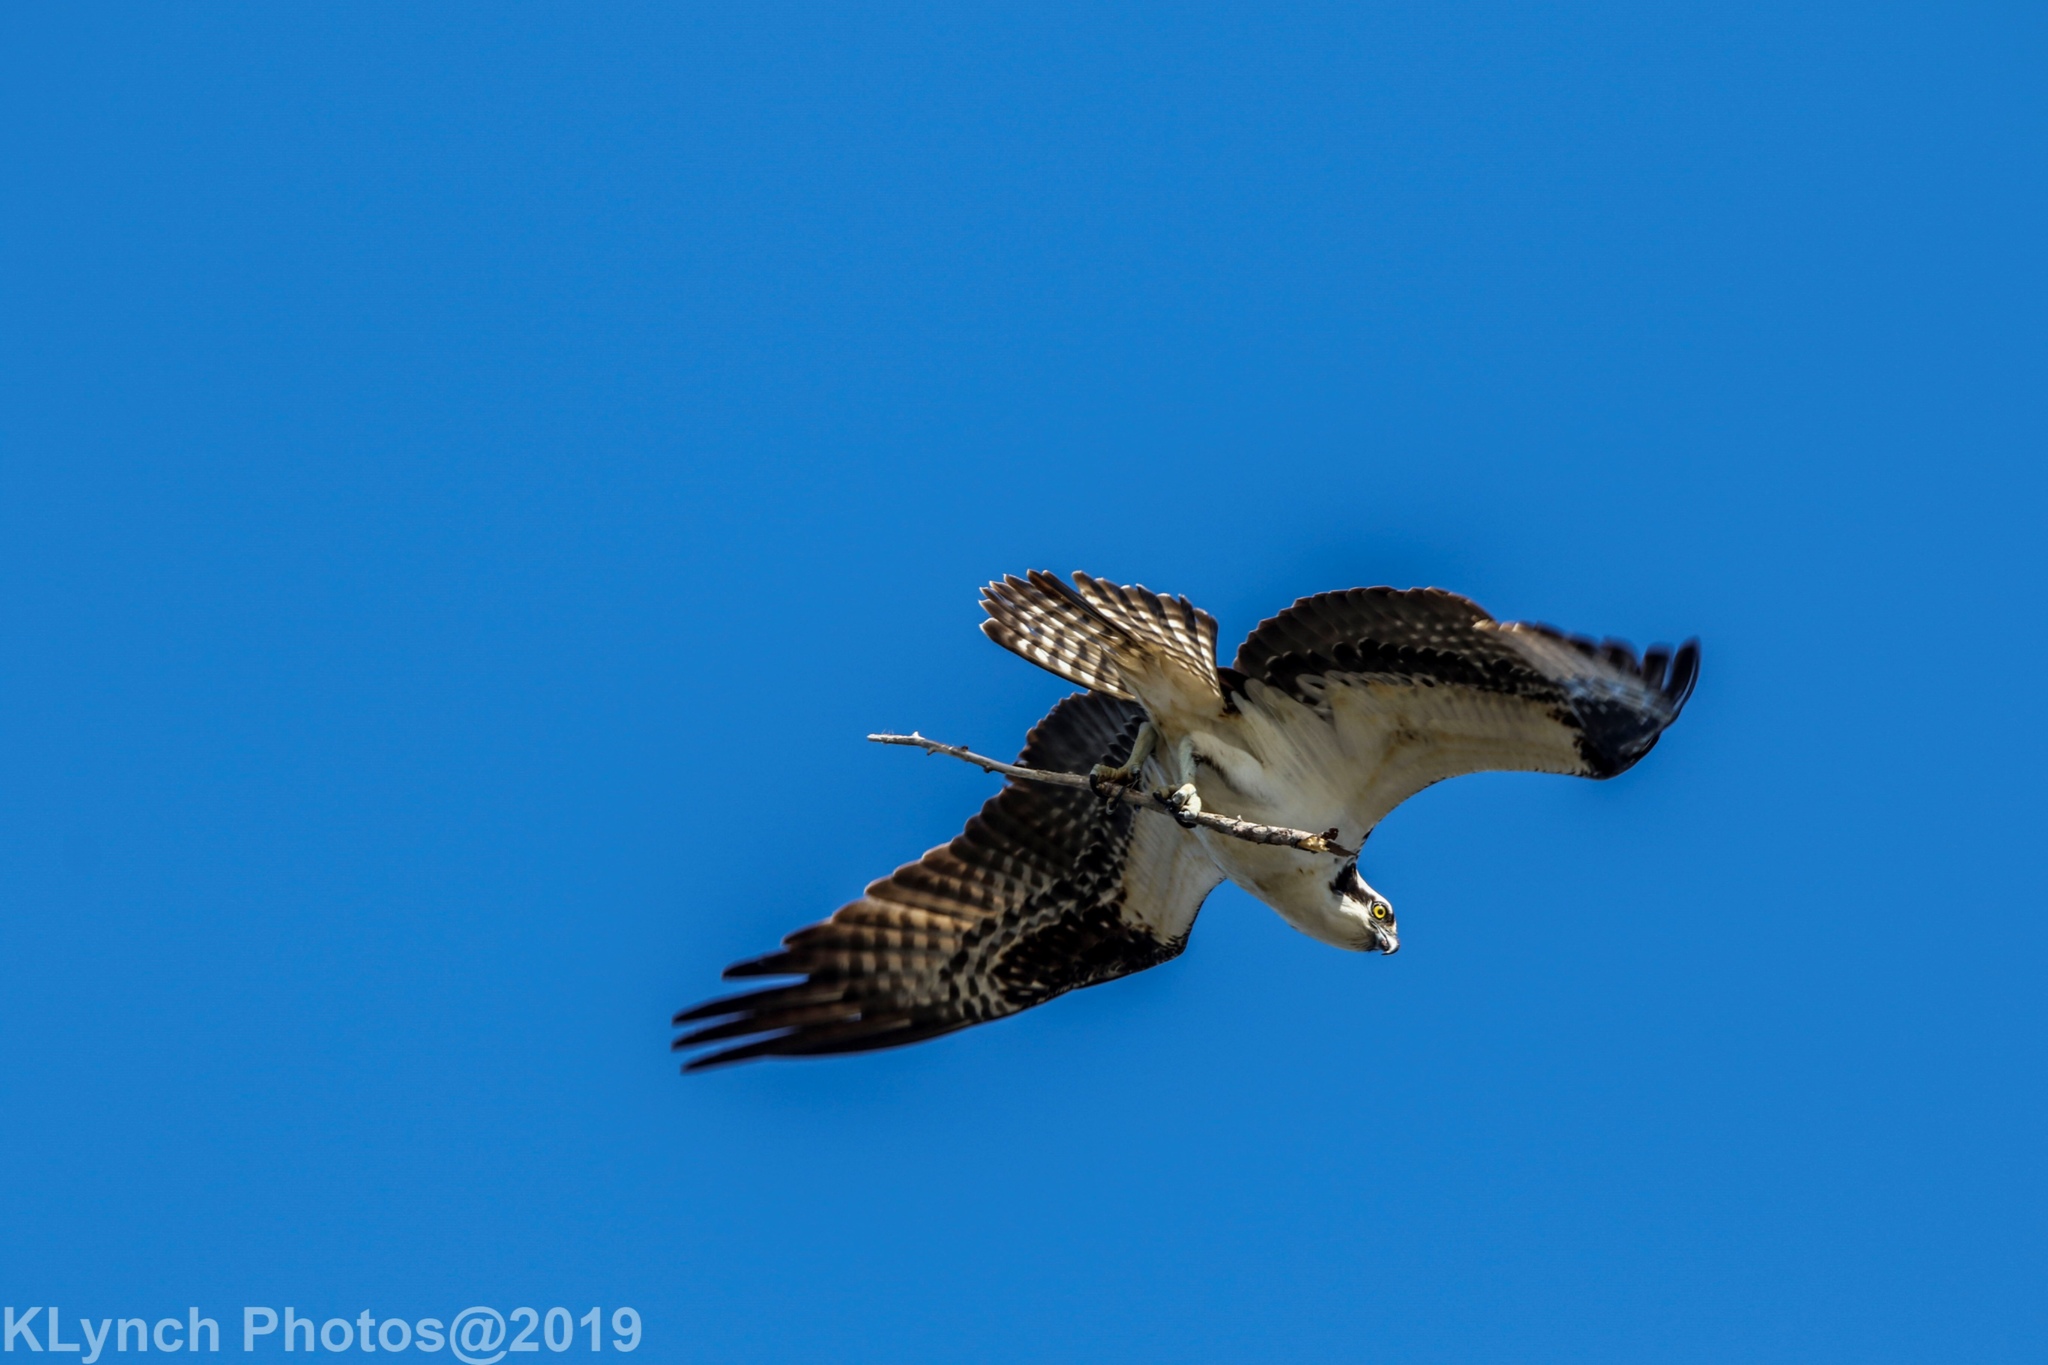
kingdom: Animalia
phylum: Chordata
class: Aves
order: Accipitriformes
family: Pandionidae
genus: Pandion
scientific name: Pandion haliaetus
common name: Osprey
